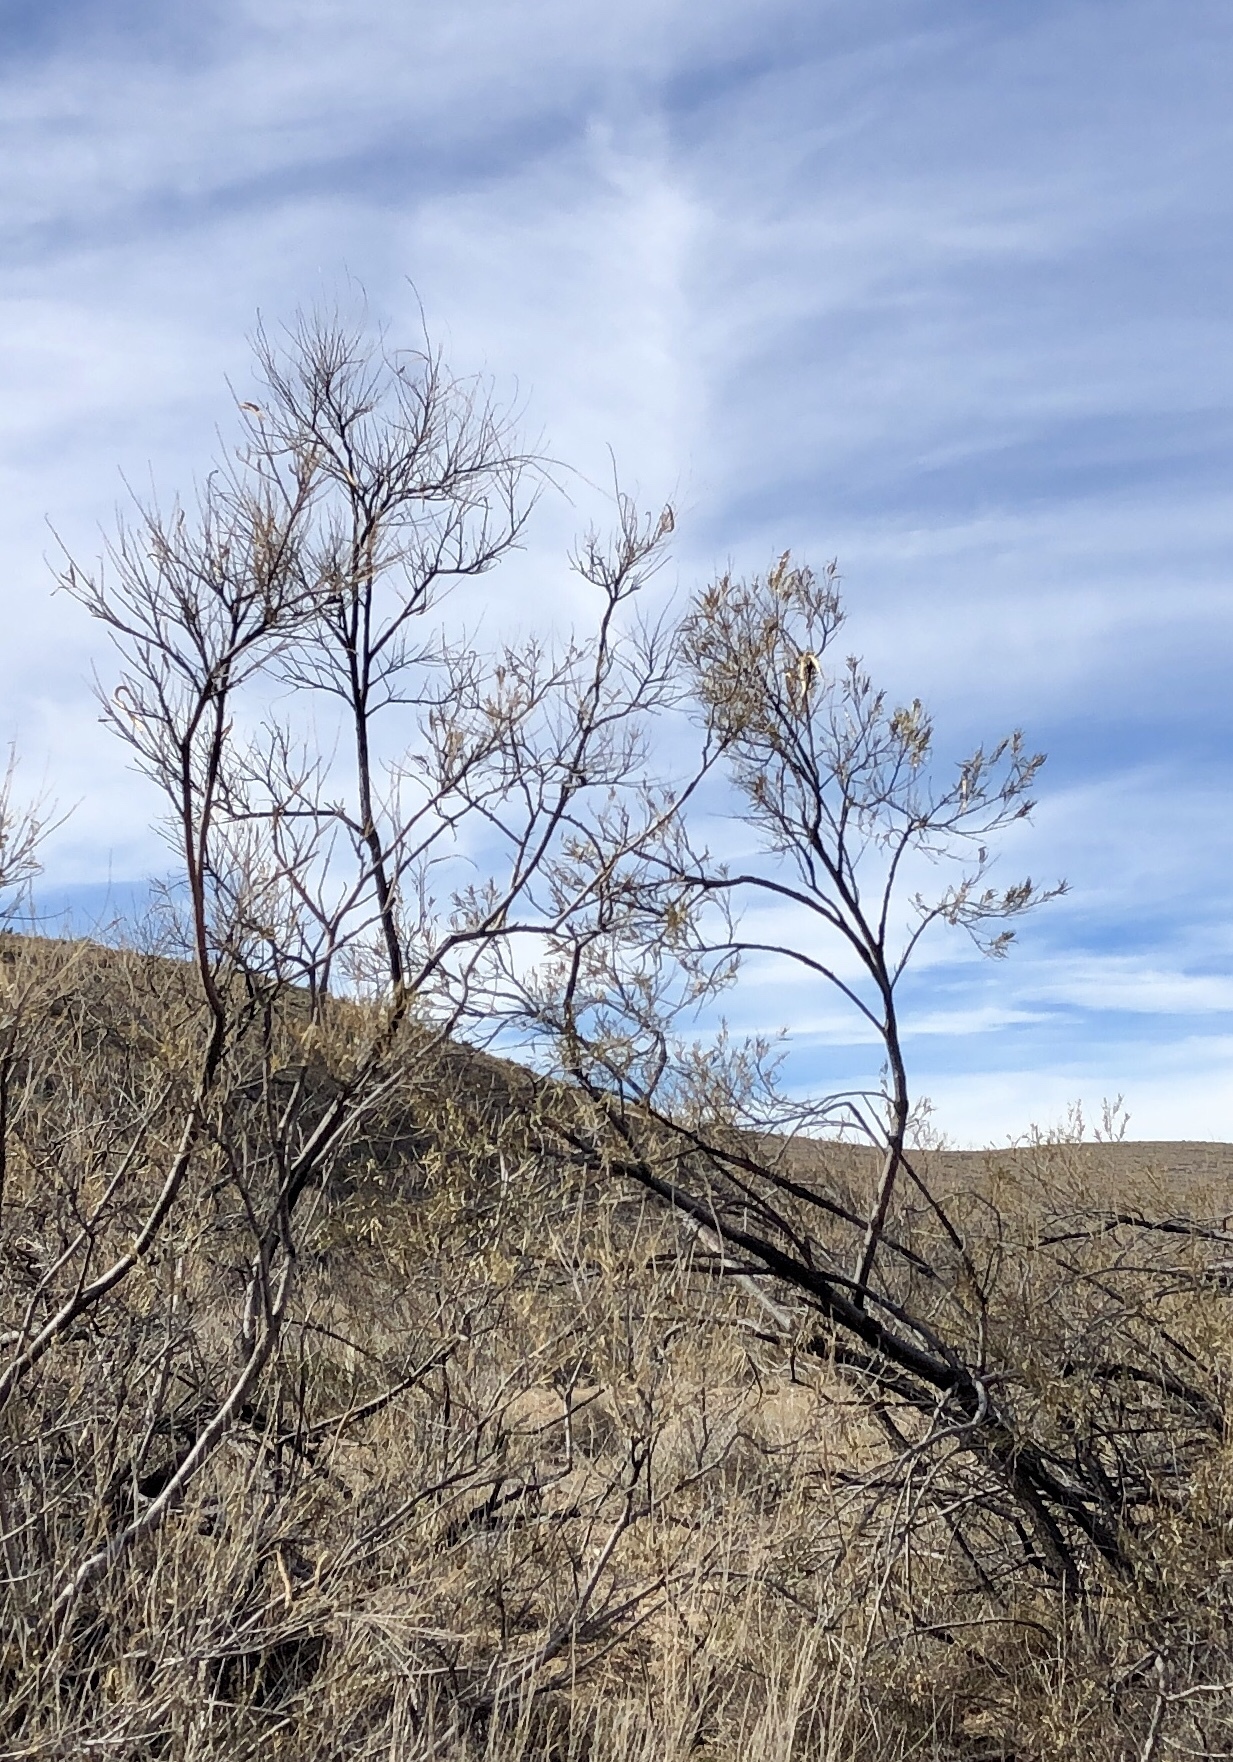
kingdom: Plantae
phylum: Tracheophyta
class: Magnoliopsida
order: Lamiales
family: Bignoniaceae
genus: Chilopsis
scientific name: Chilopsis linearis
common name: Desert-willow
